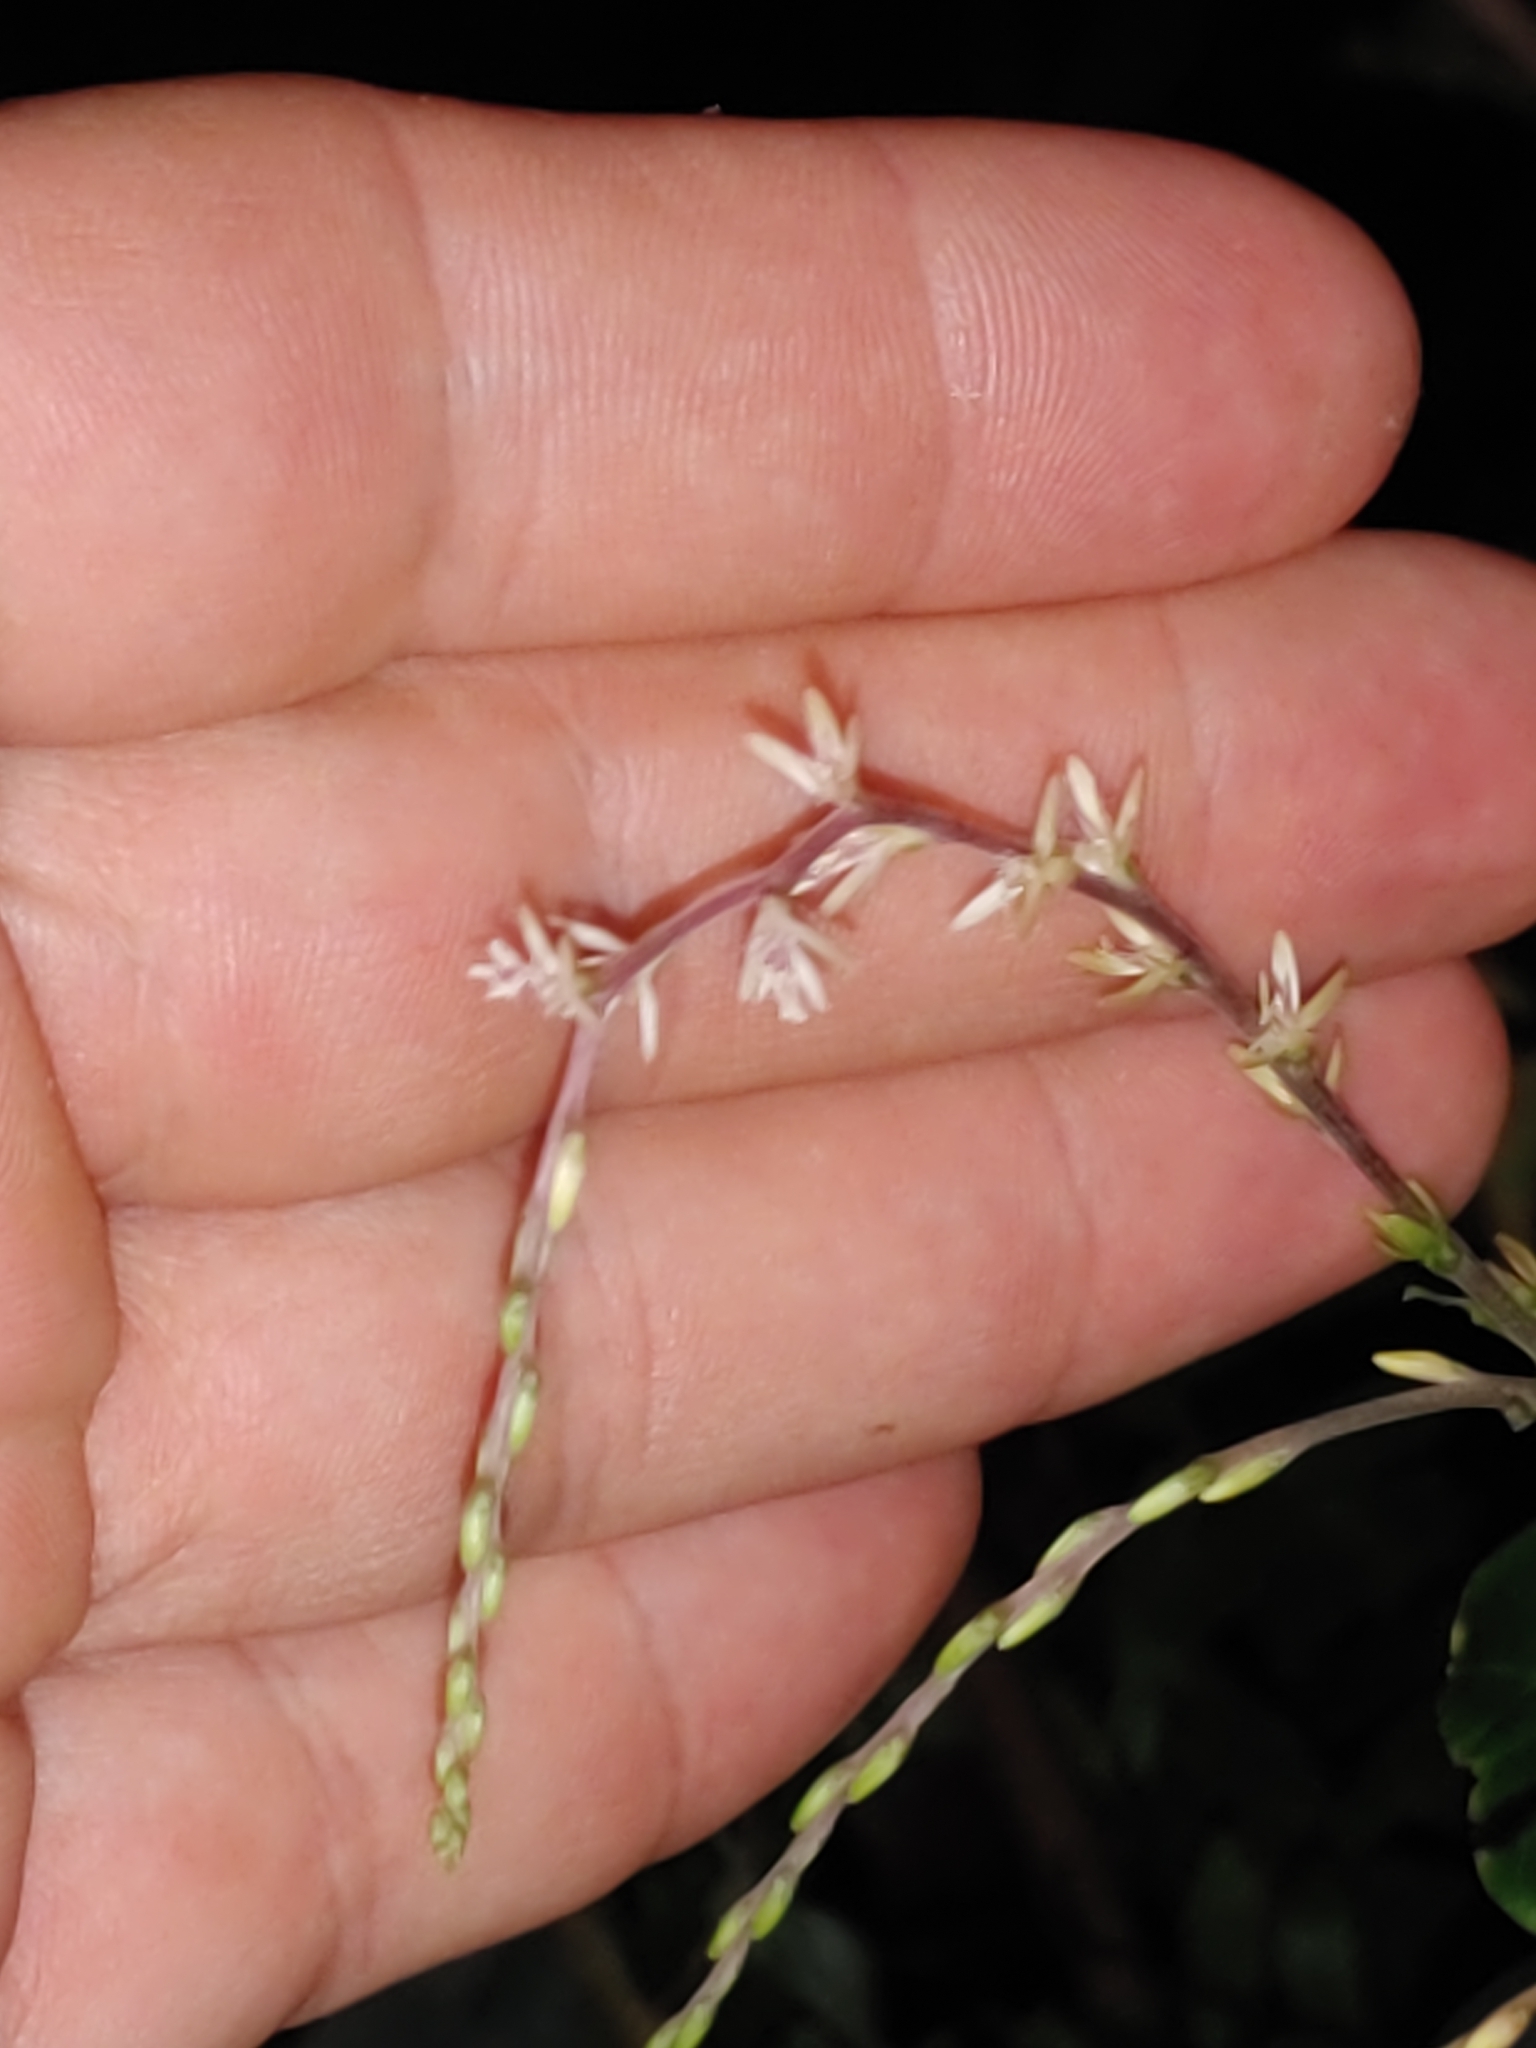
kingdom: Plantae
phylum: Tracheophyta
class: Magnoliopsida
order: Caryophyllales
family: Phytolaccaceae
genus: Petiveria
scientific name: Petiveria alliacea
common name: Garlicweed
